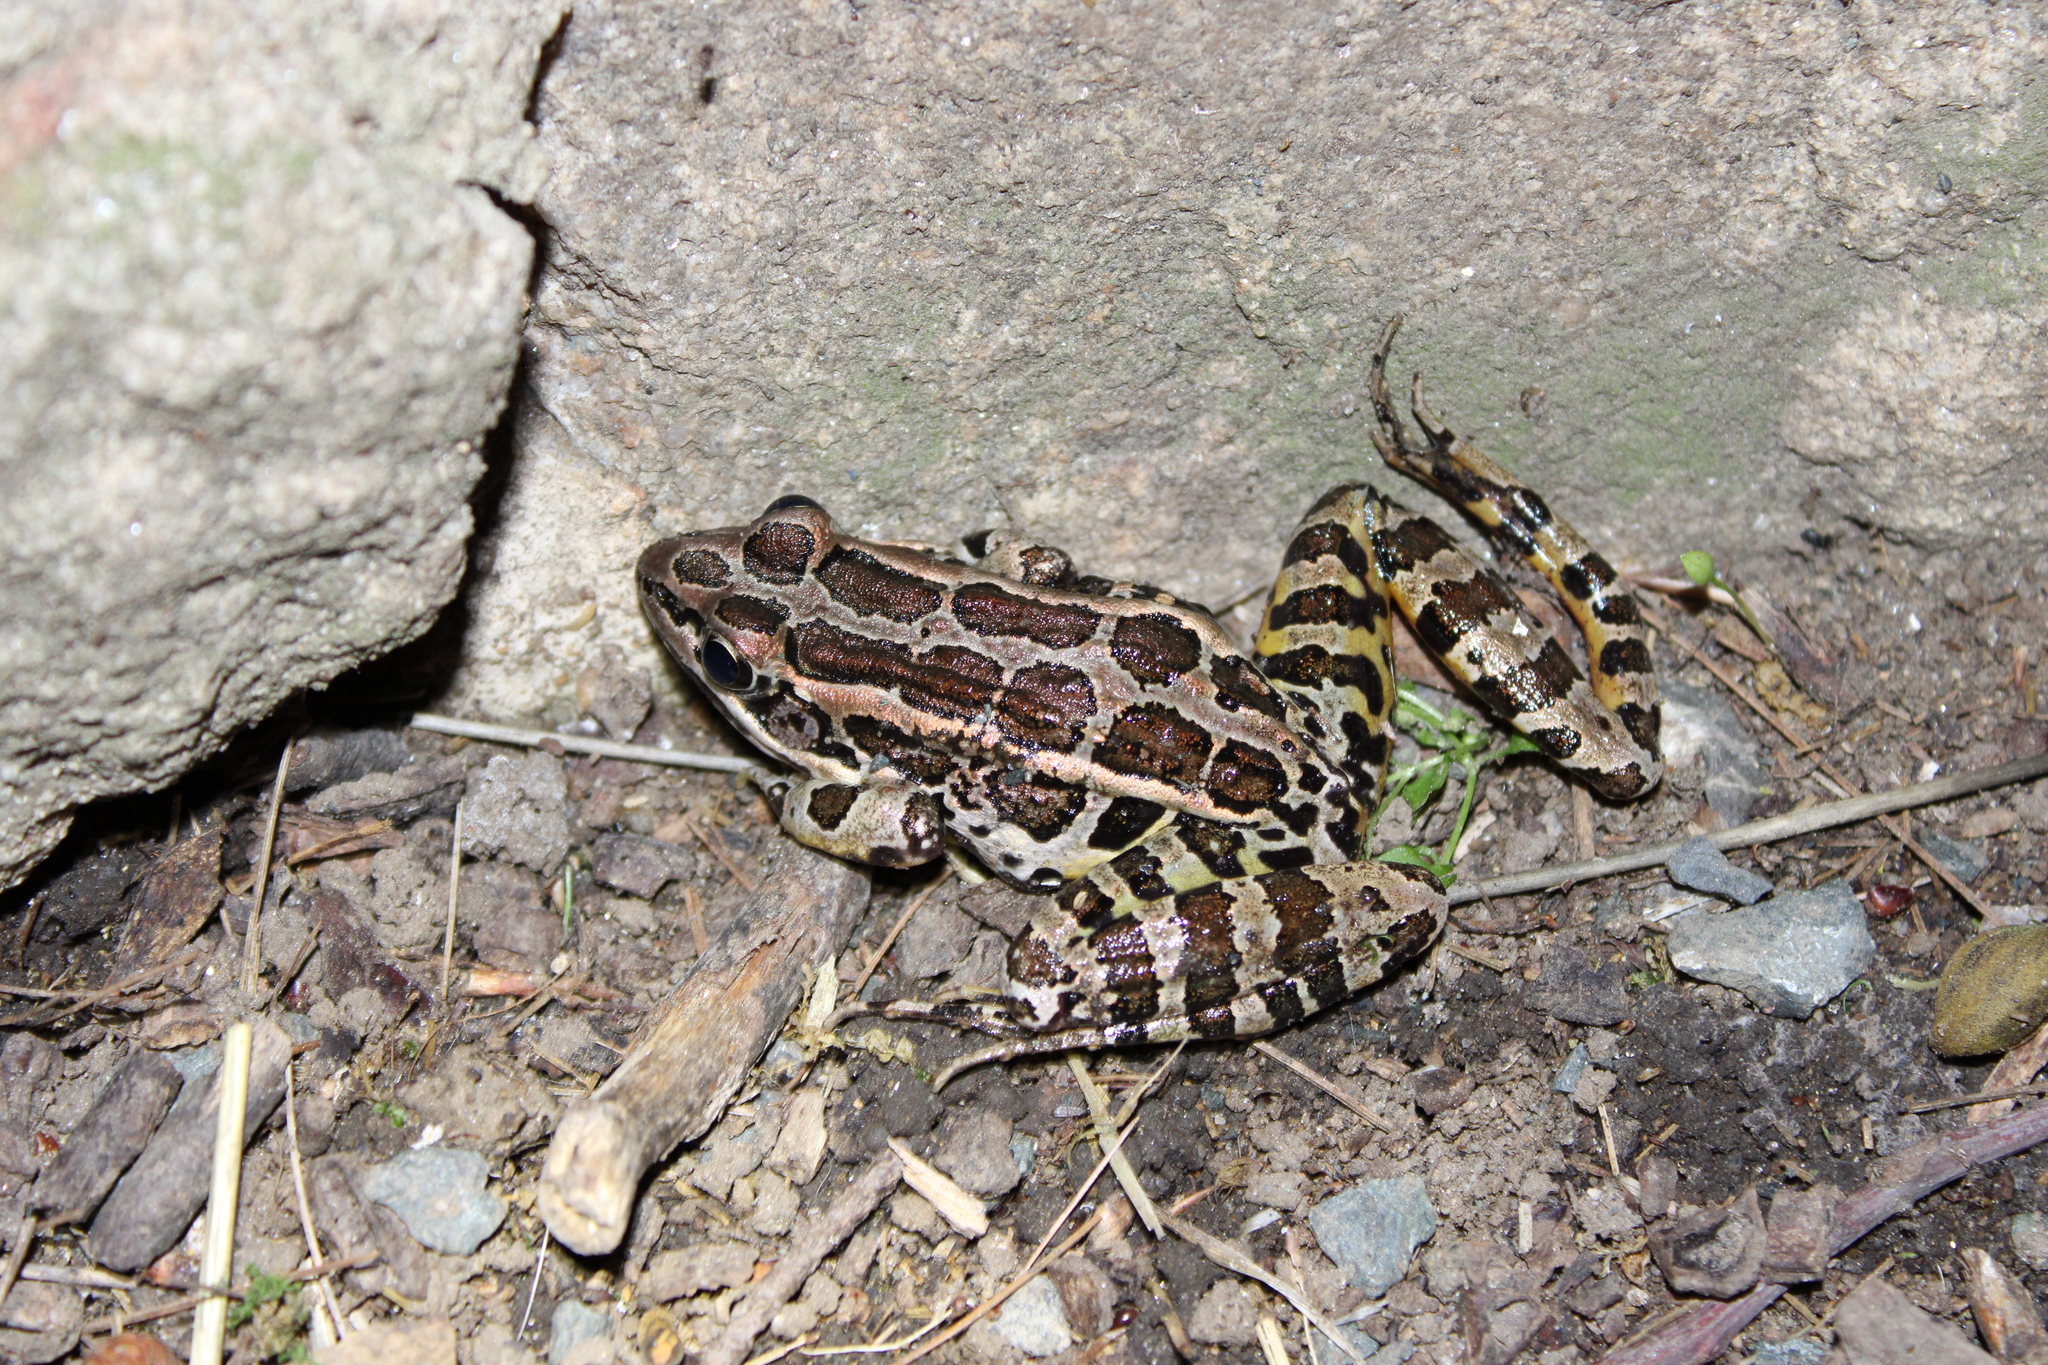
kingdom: Animalia
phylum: Chordata
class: Amphibia
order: Anura
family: Ranidae
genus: Lithobates
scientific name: Lithobates palustris
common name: Pickerel frog
